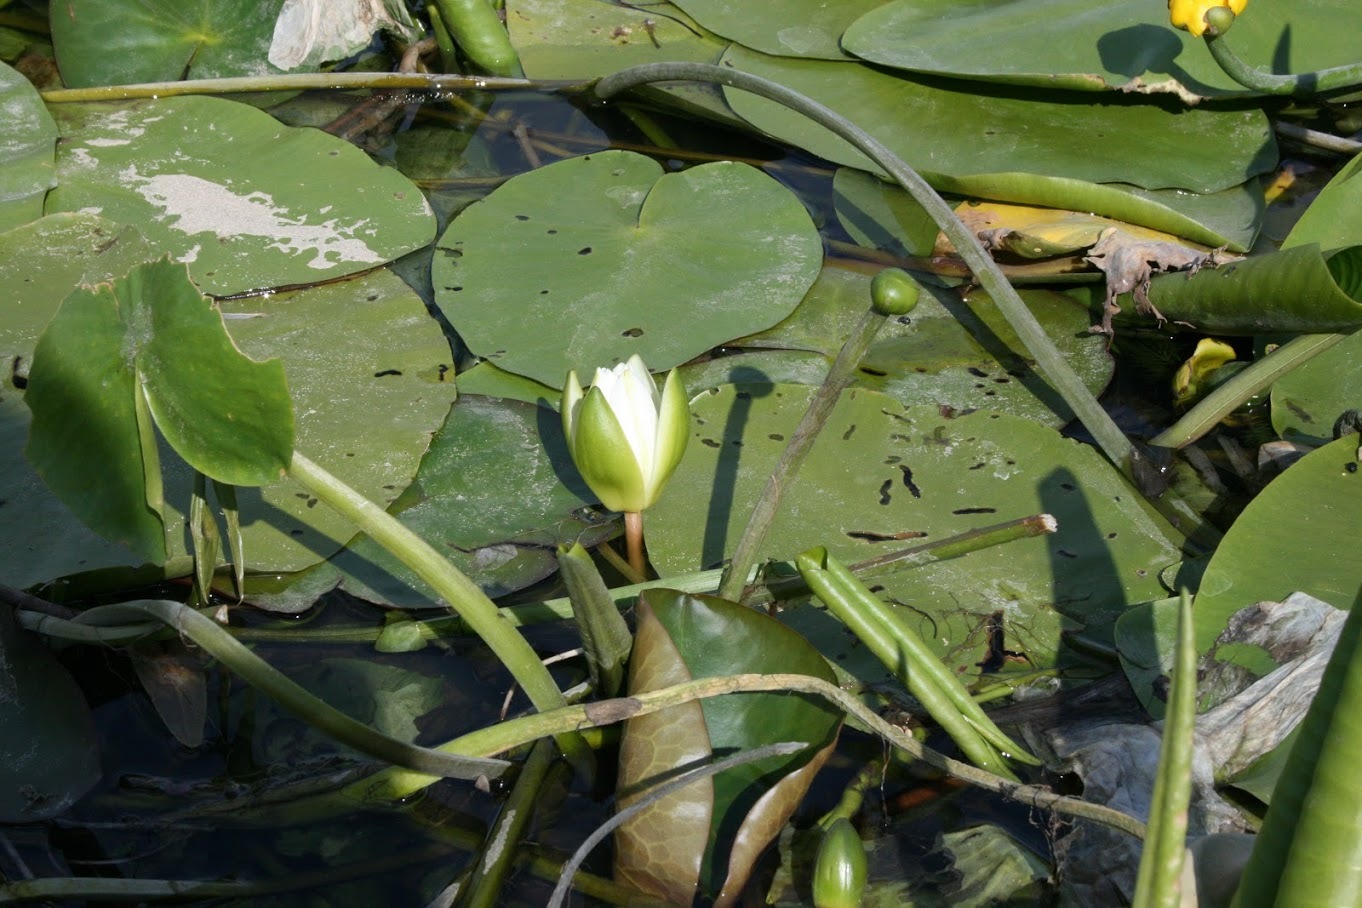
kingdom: Plantae
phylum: Tracheophyta
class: Magnoliopsida
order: Nymphaeales
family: Nymphaeaceae
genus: Nymphaea
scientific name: Nymphaea alba
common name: White water-lily
